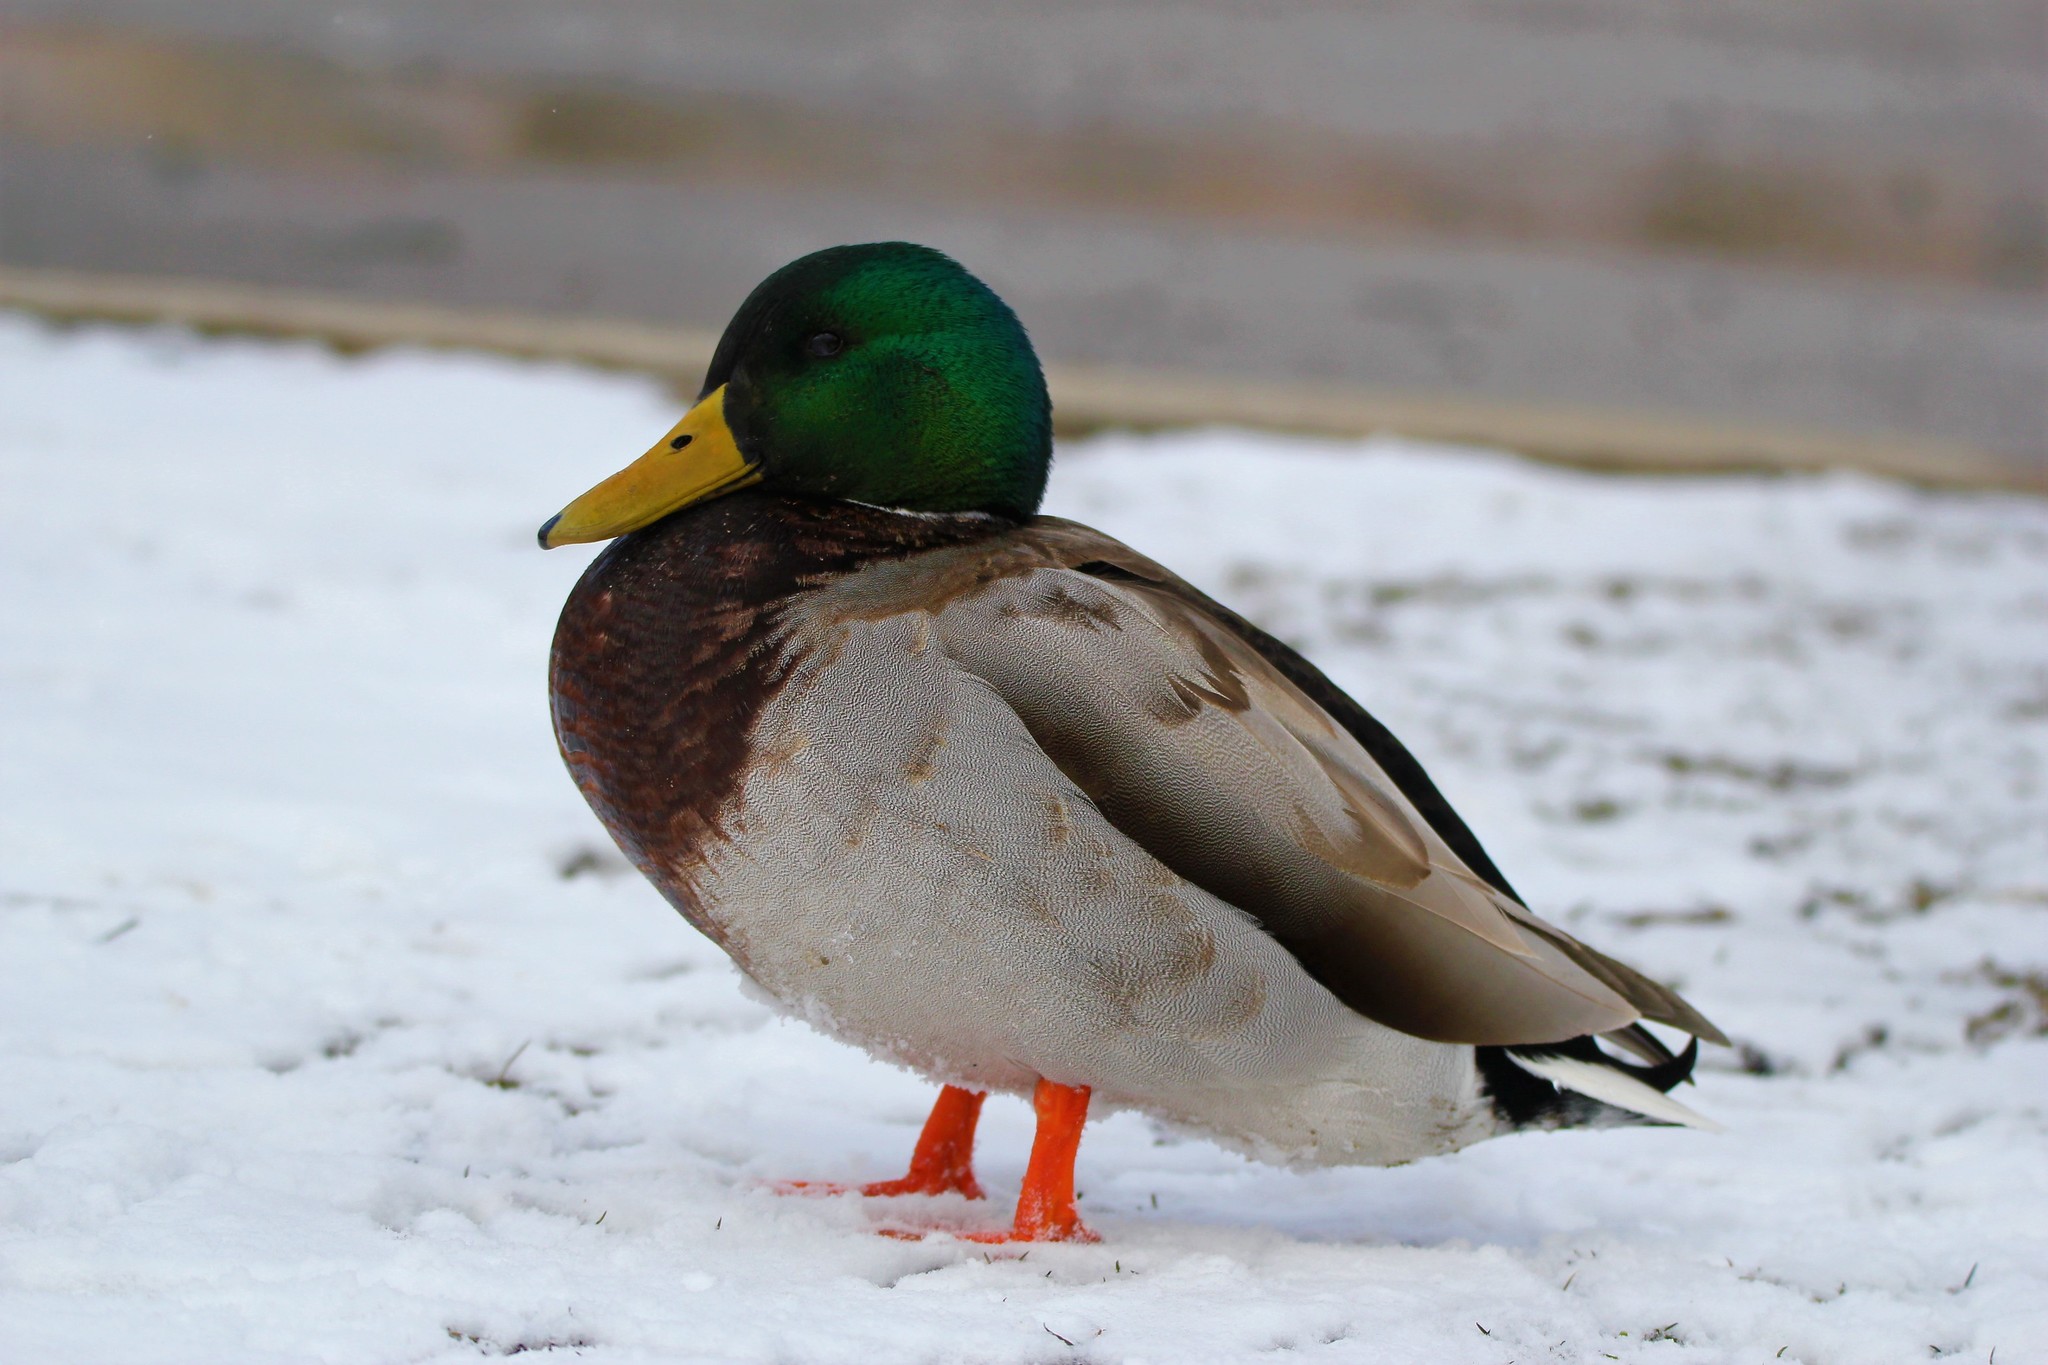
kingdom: Animalia
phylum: Chordata
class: Aves
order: Anseriformes
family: Anatidae
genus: Anas
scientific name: Anas platyrhynchos
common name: Mallard
